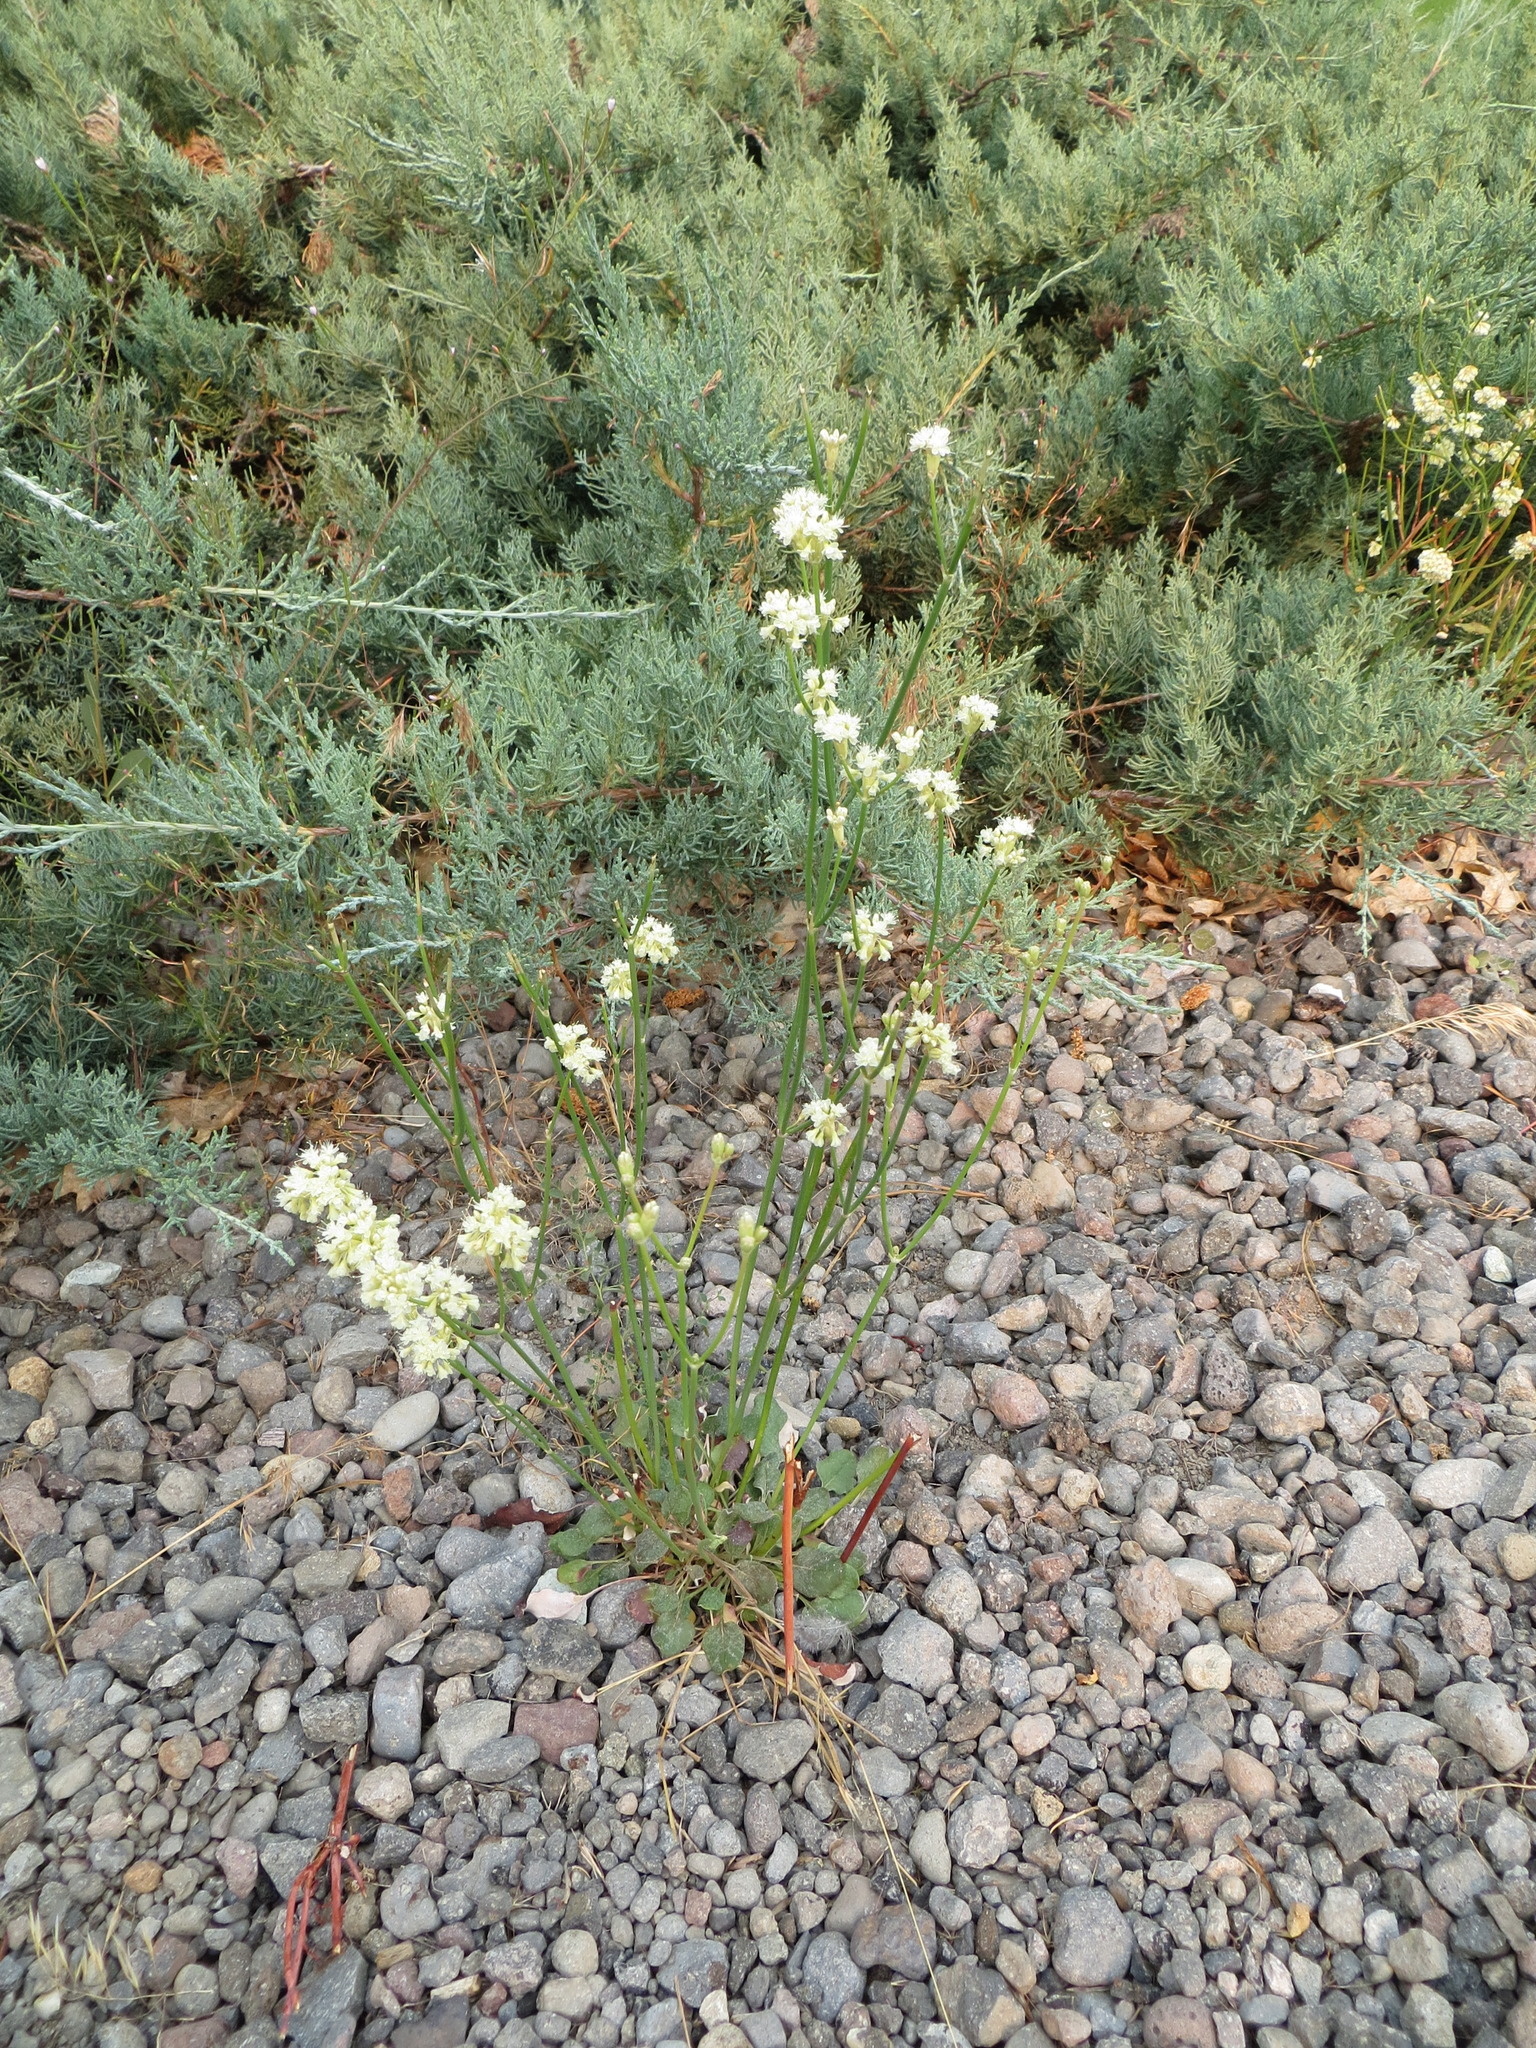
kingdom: Plantae
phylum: Tracheophyta
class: Magnoliopsida
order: Caryophyllales
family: Polygonaceae
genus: Eriogonum
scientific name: Eriogonum nudum
